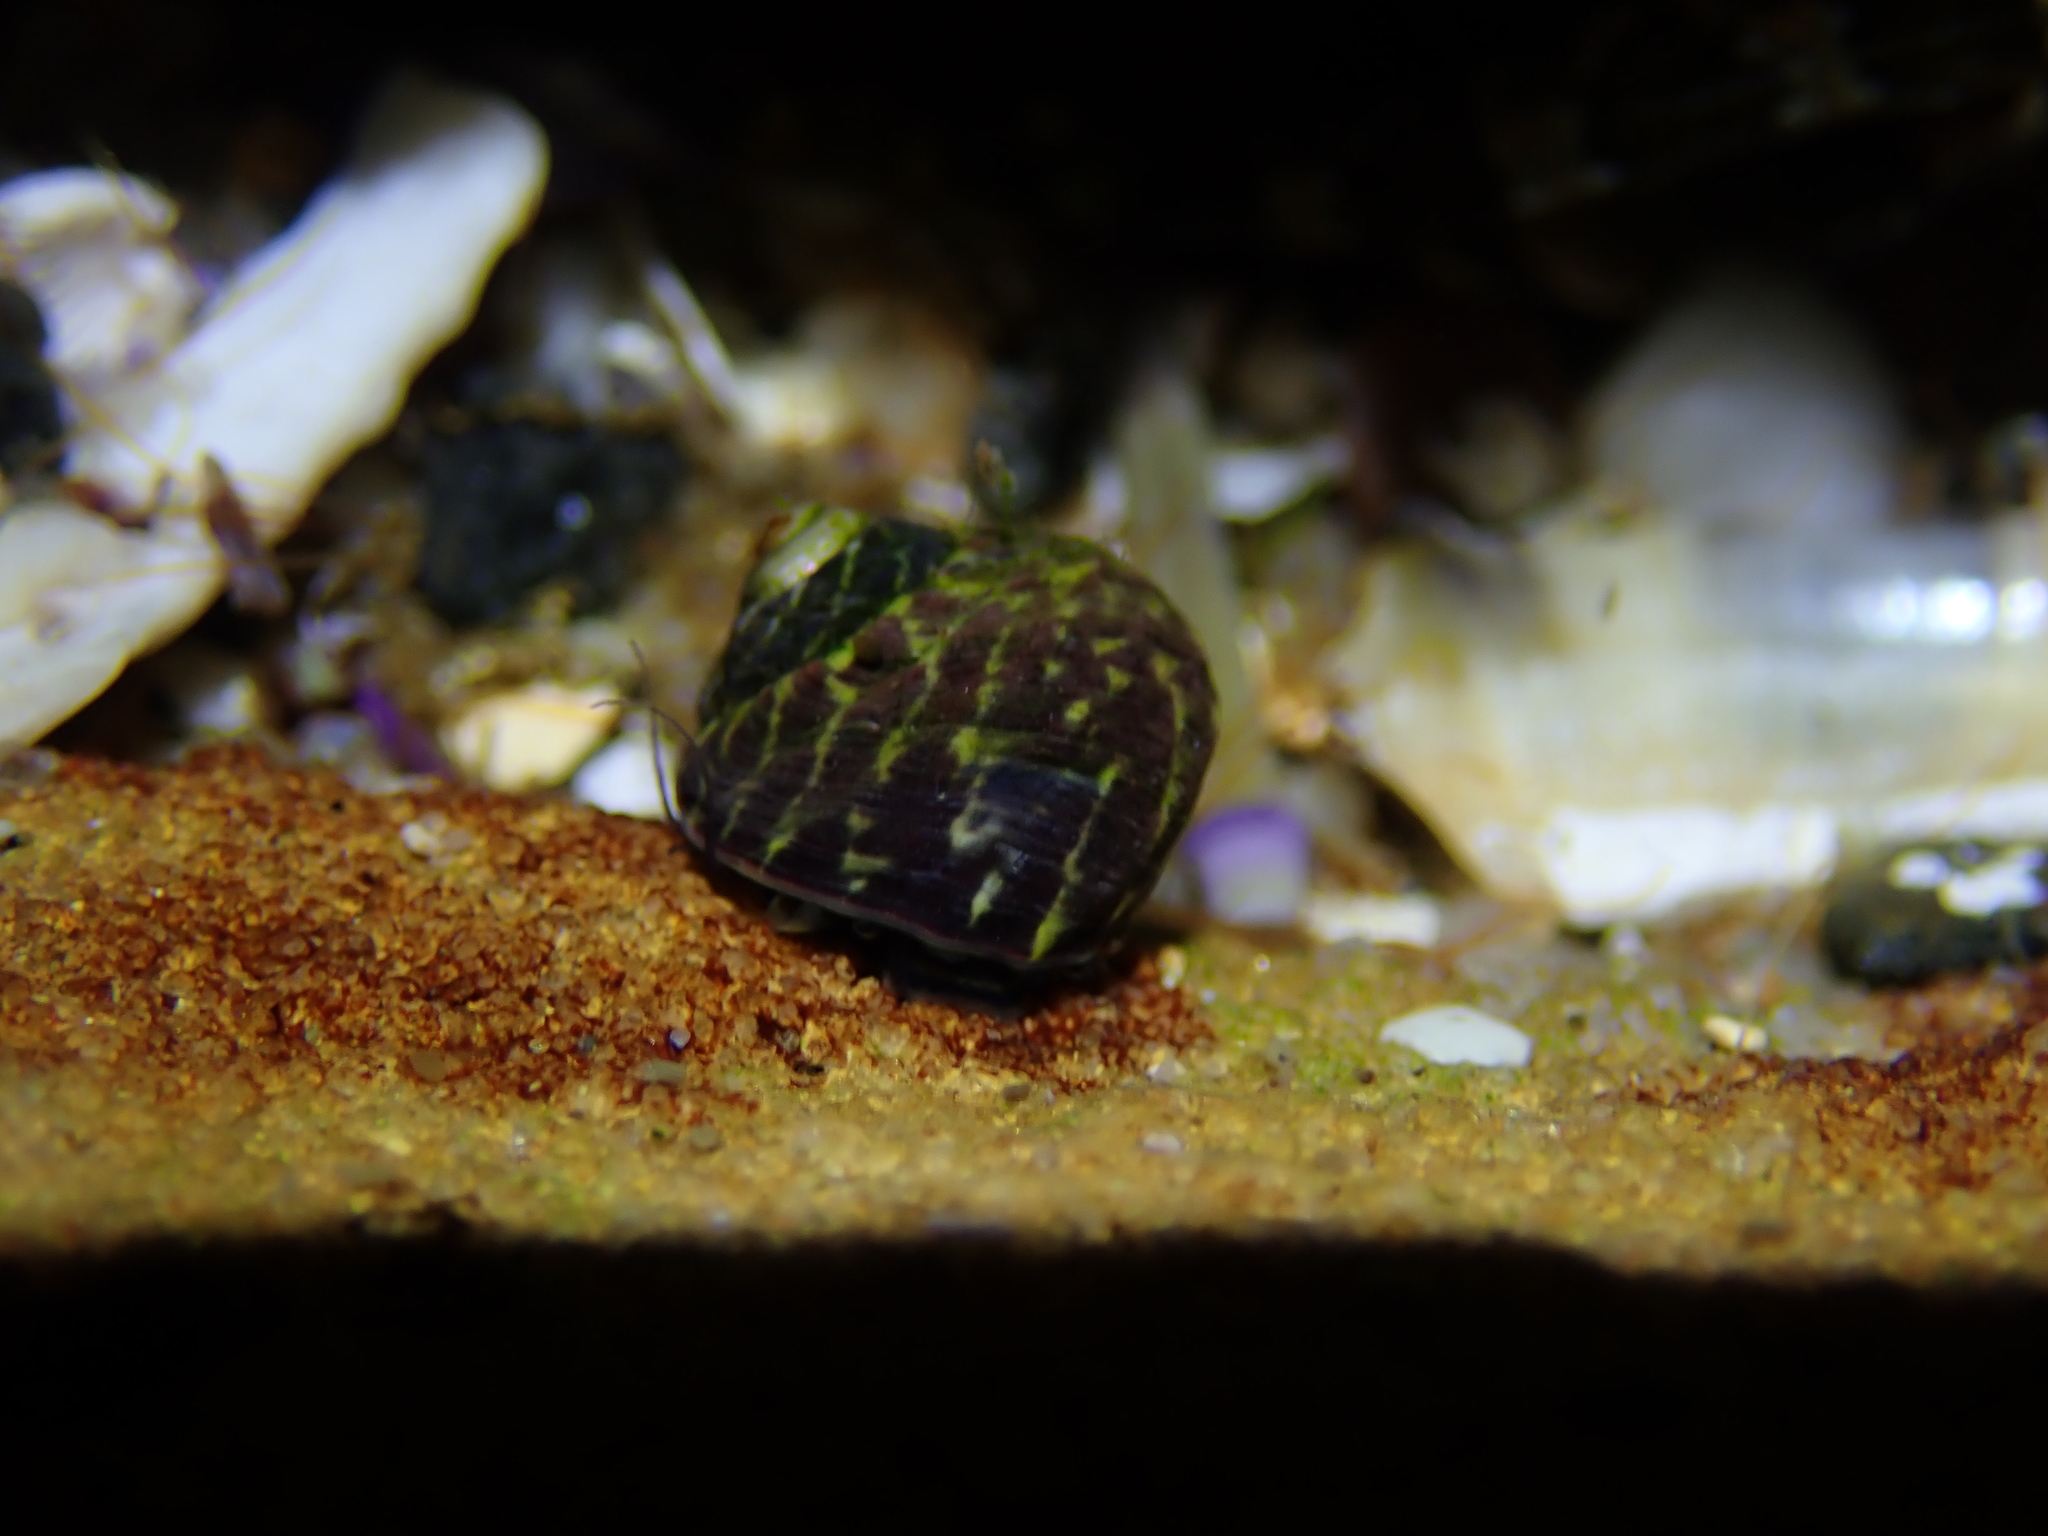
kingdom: Animalia
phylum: Mollusca
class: Gastropoda
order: Trochida
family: Trochidae
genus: Austrocochlea
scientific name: Austrocochlea porcata
